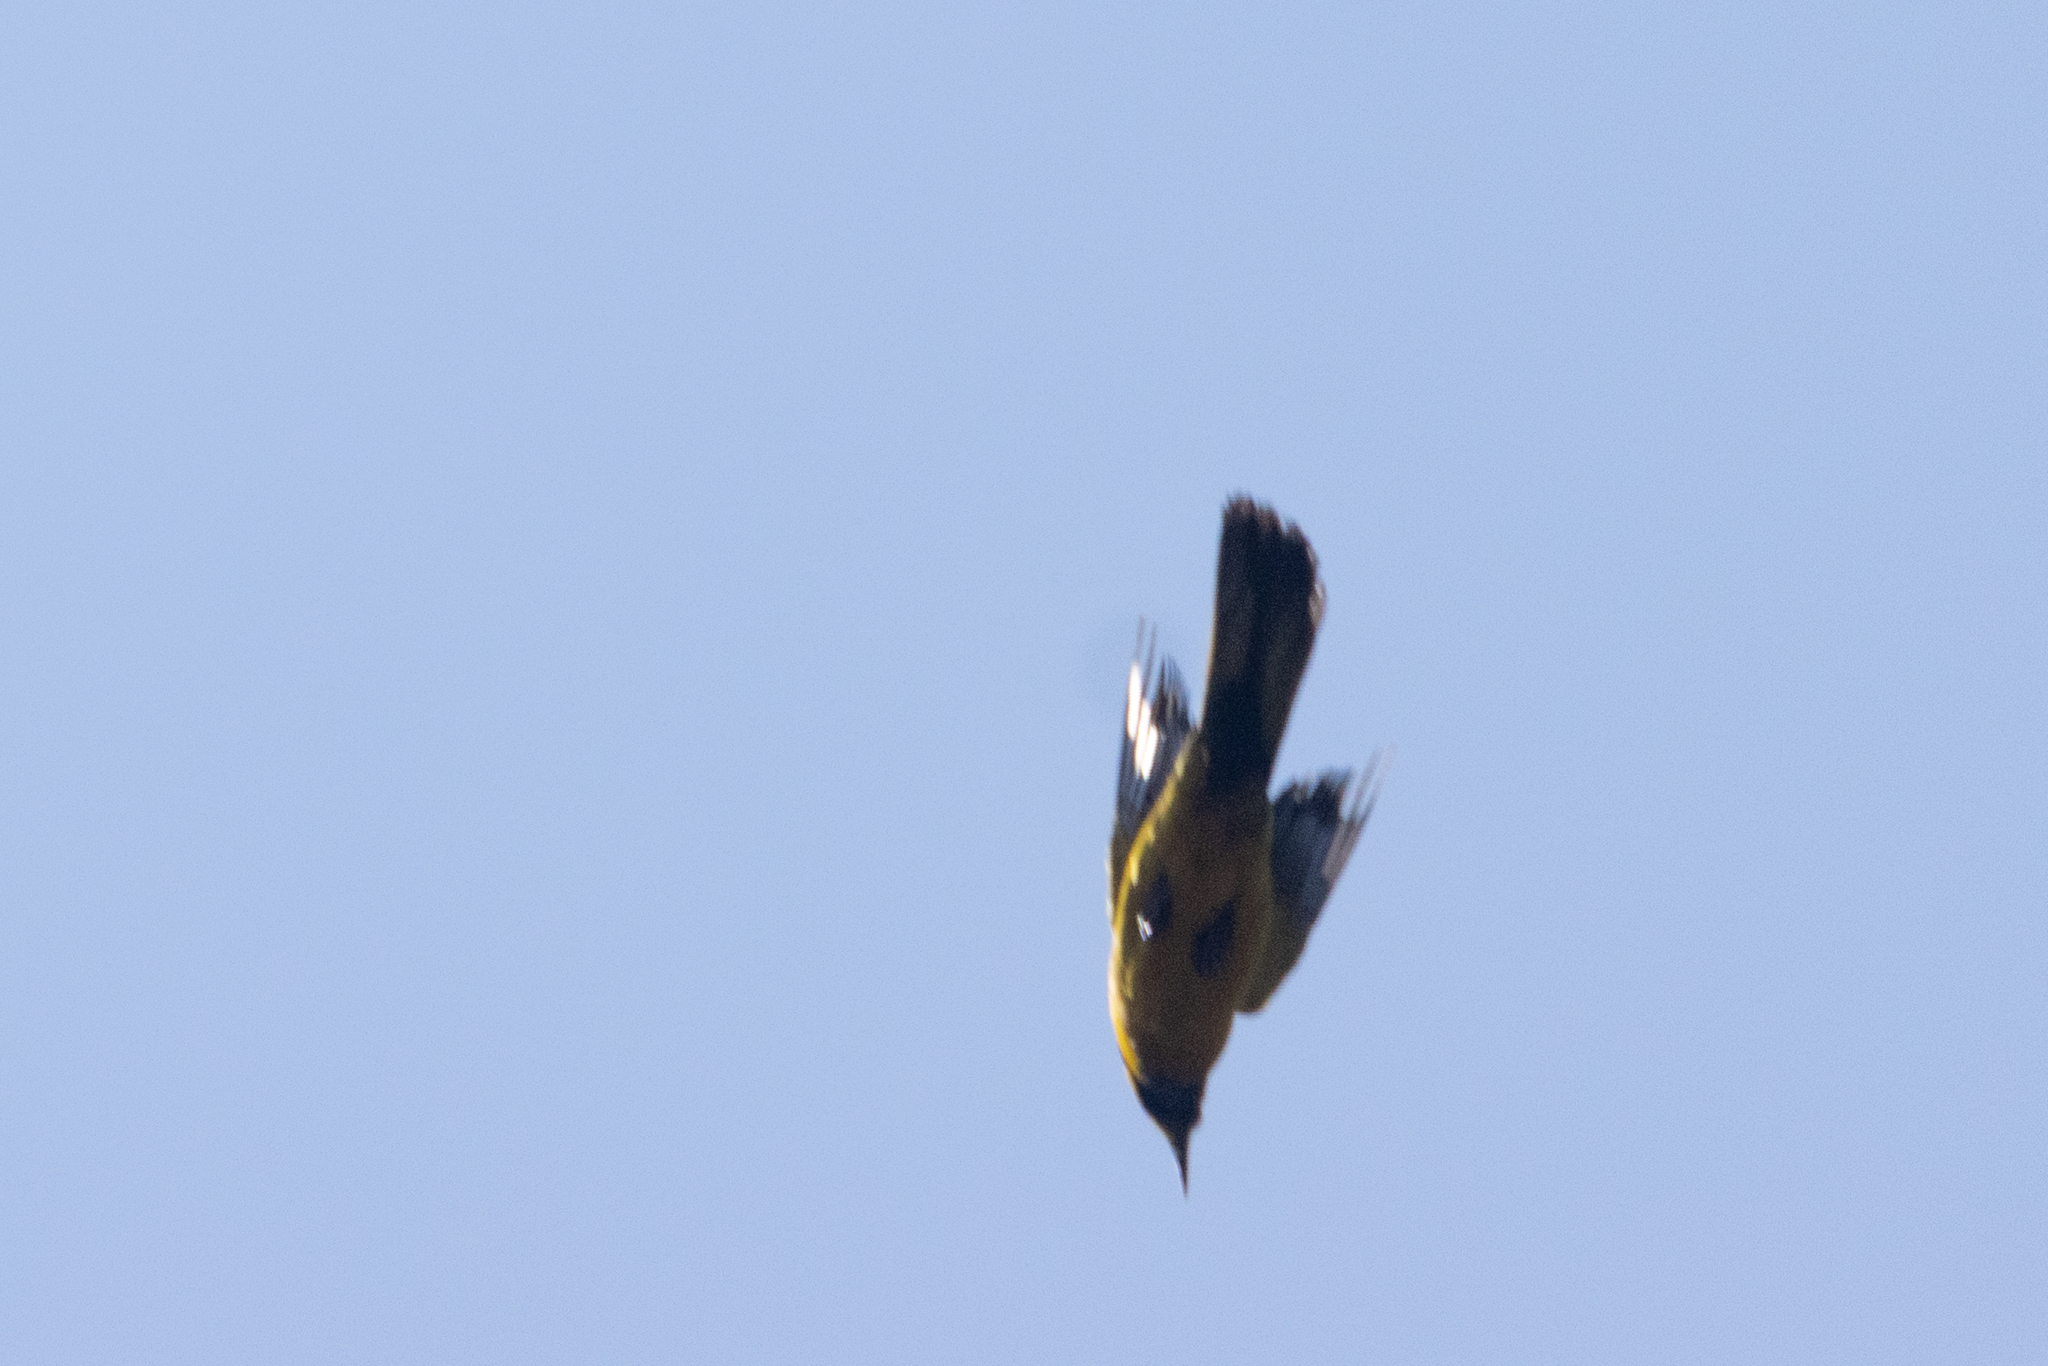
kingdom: Animalia
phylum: Chordata
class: Aves
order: Passeriformes
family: Icteridae
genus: Icterus
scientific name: Icterus maculialatus
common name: Bar-winged oriole
